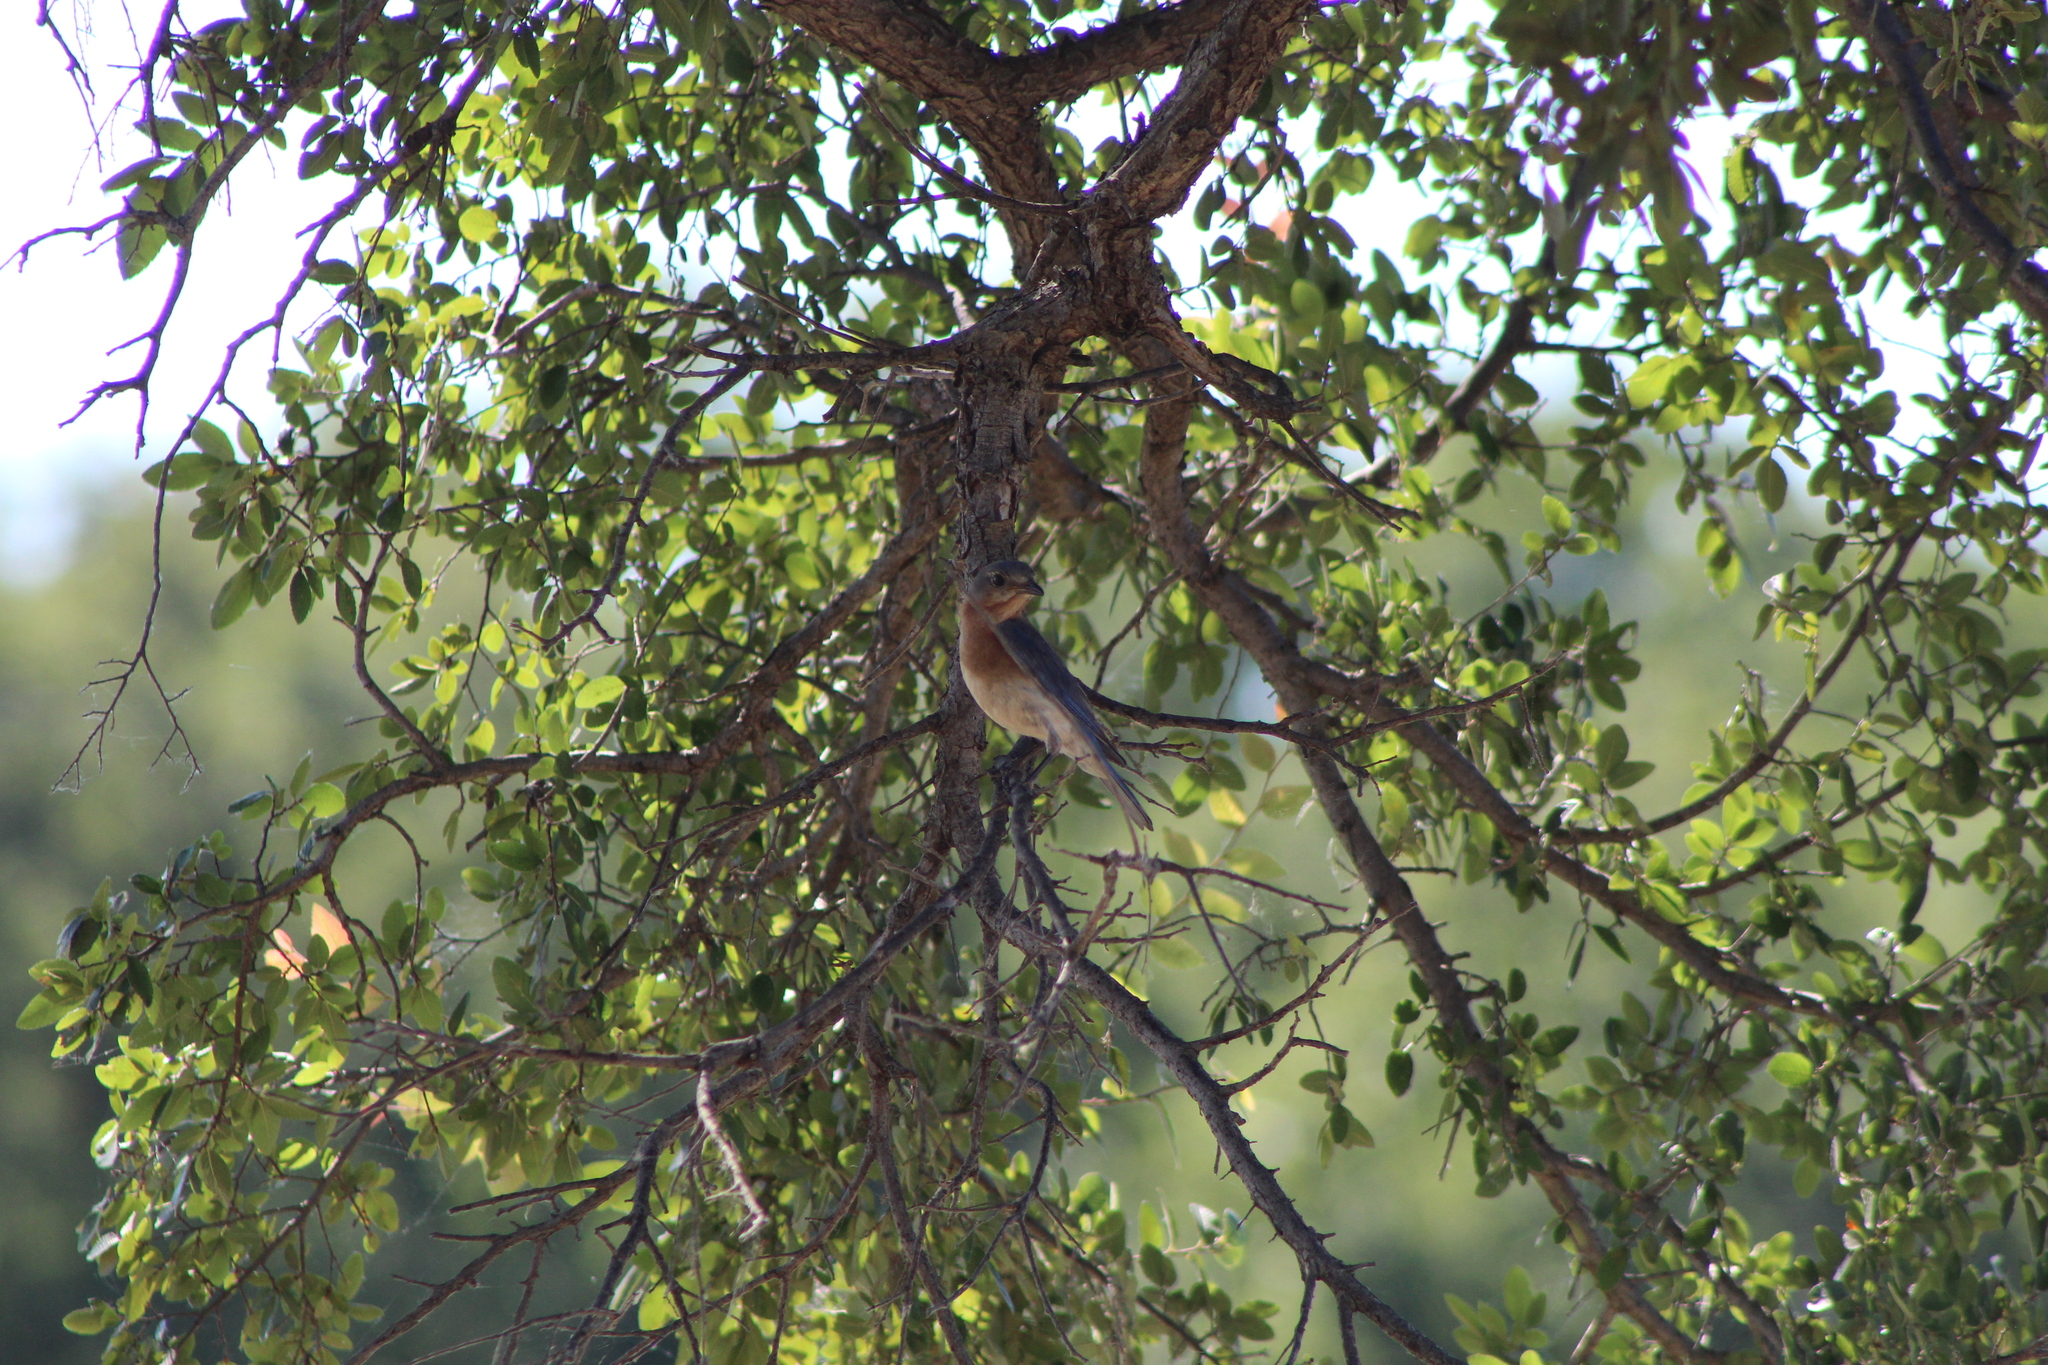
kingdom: Animalia
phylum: Chordata
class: Aves
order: Passeriformes
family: Turdidae
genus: Sialia
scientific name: Sialia sialis
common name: Eastern bluebird
